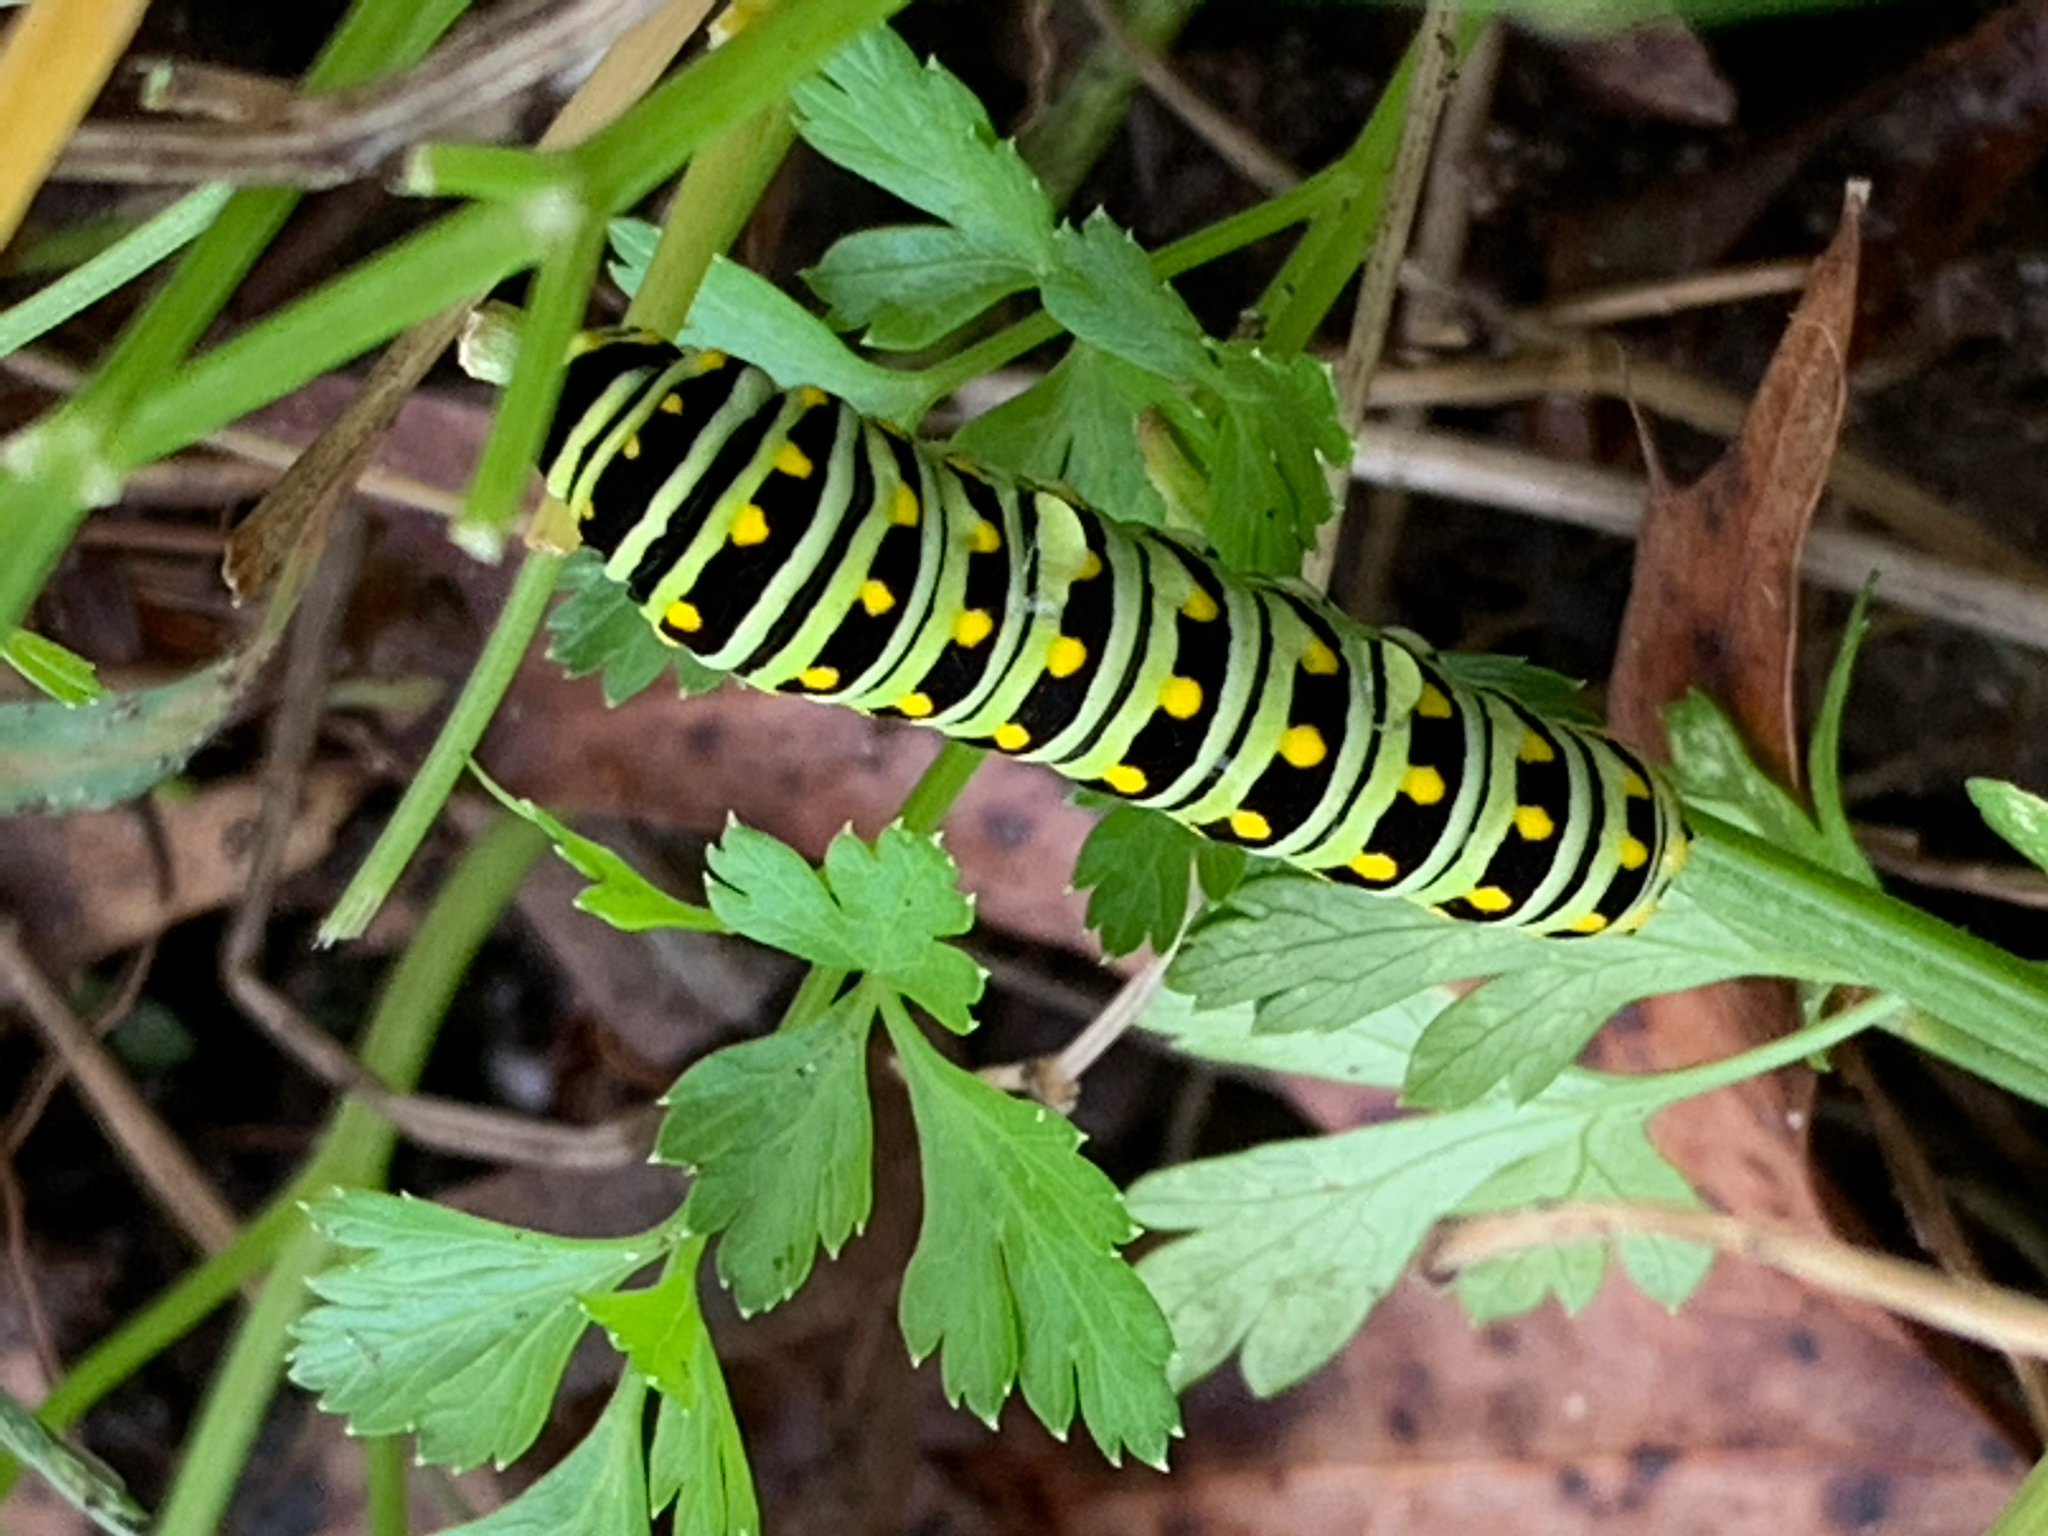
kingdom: Animalia
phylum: Arthropoda
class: Insecta
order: Lepidoptera
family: Papilionidae
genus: Papilio
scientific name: Papilio polyxenes
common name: Black swallowtail
